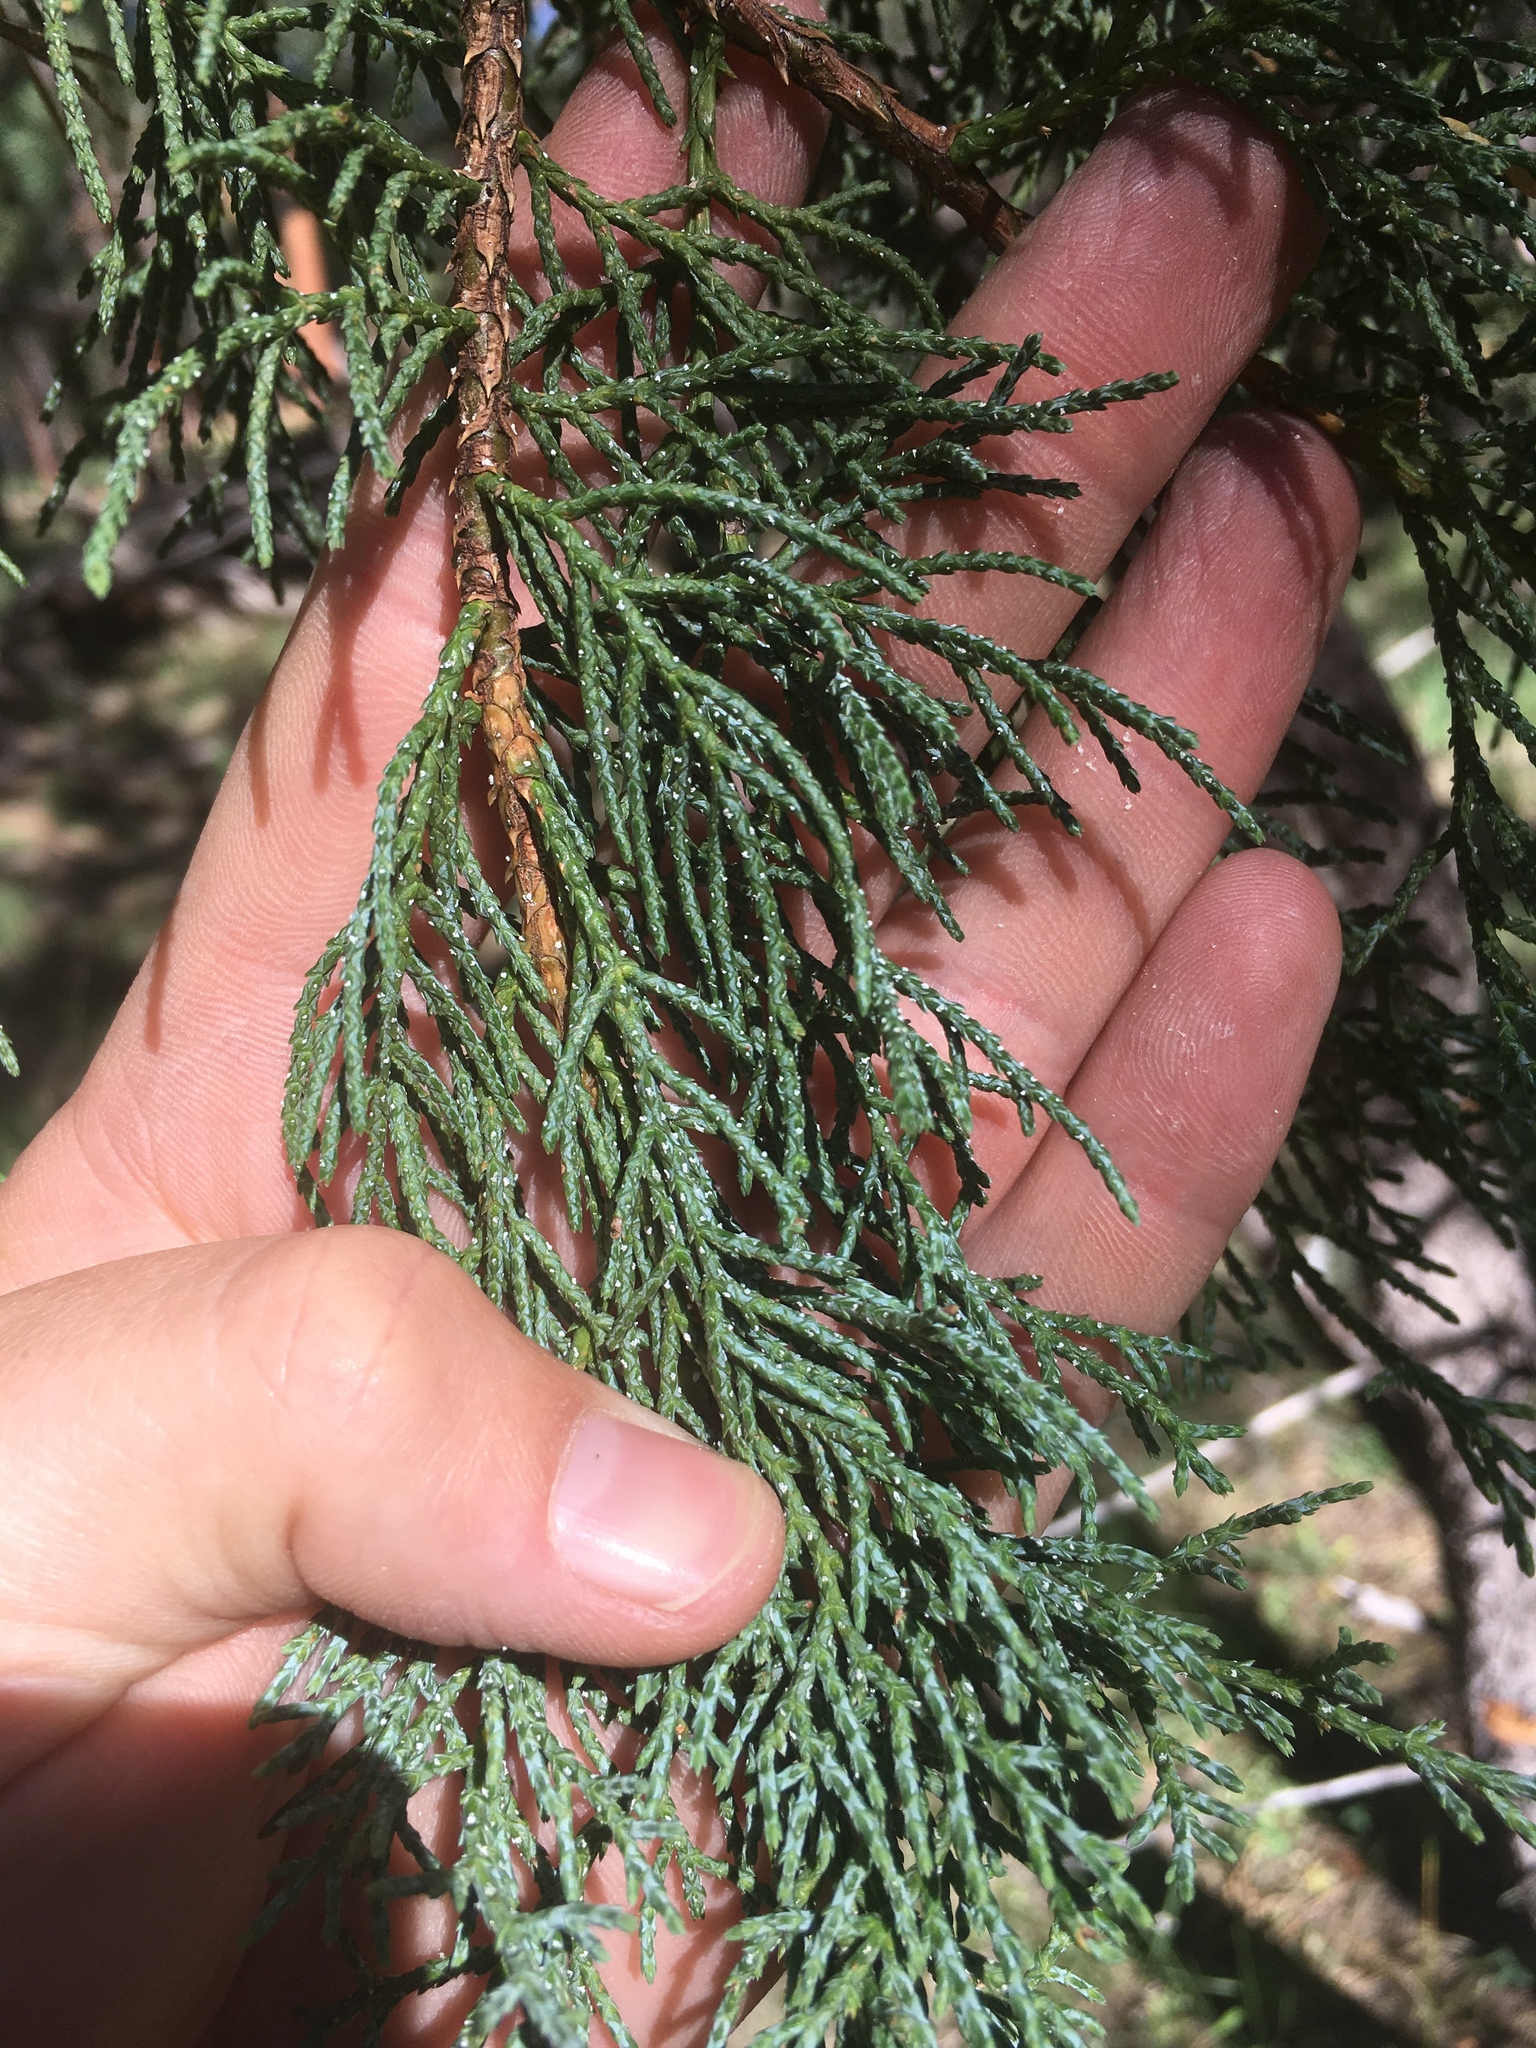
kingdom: Plantae
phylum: Tracheophyta
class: Pinopsida
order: Pinales
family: Cupressaceae
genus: Juniperus
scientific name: Juniperus deppeana
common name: Alligator juniper
